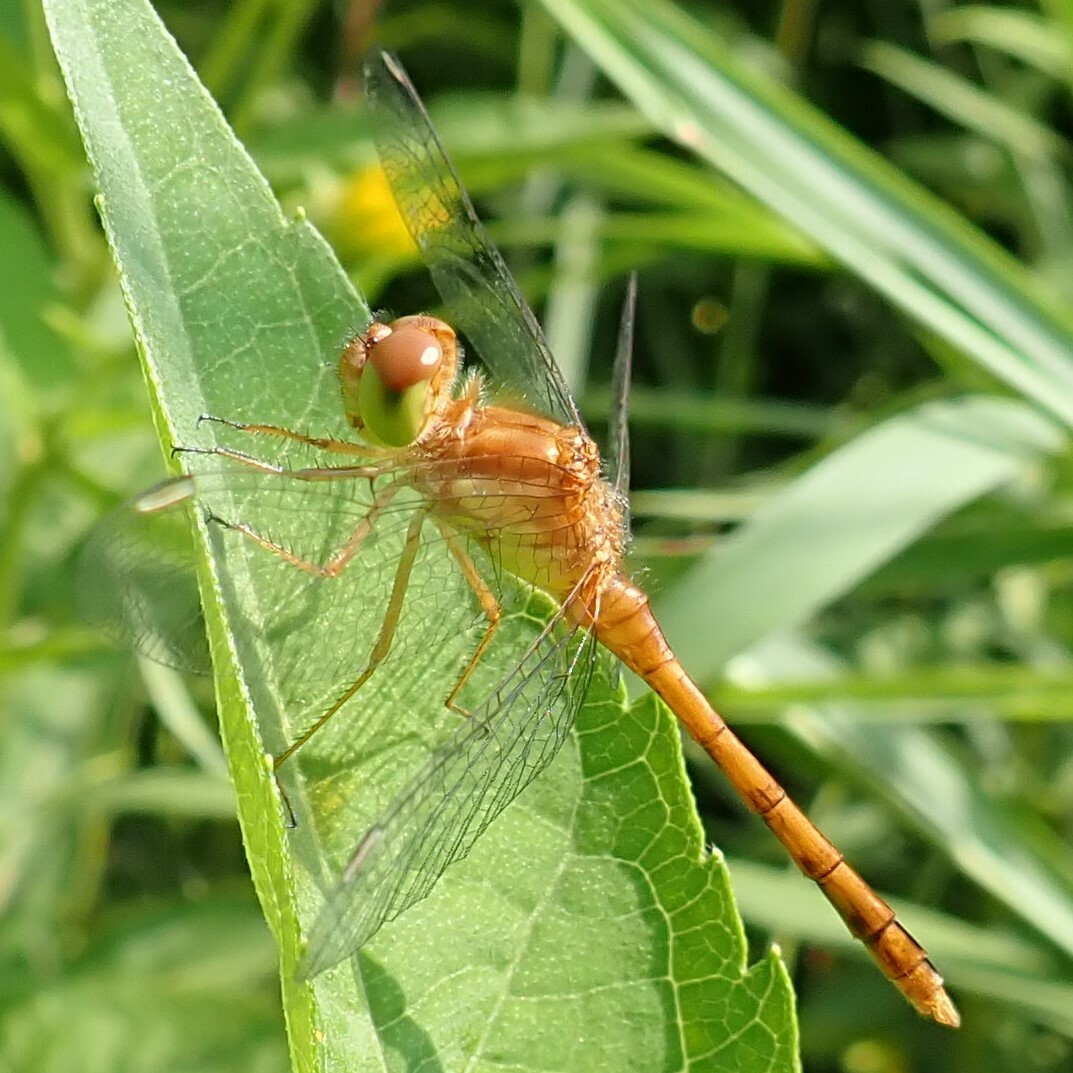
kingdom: Animalia
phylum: Arthropoda
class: Insecta
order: Odonata
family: Libellulidae
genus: Sympetrum
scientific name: Sympetrum vicinum
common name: Autumn meadowhawk
